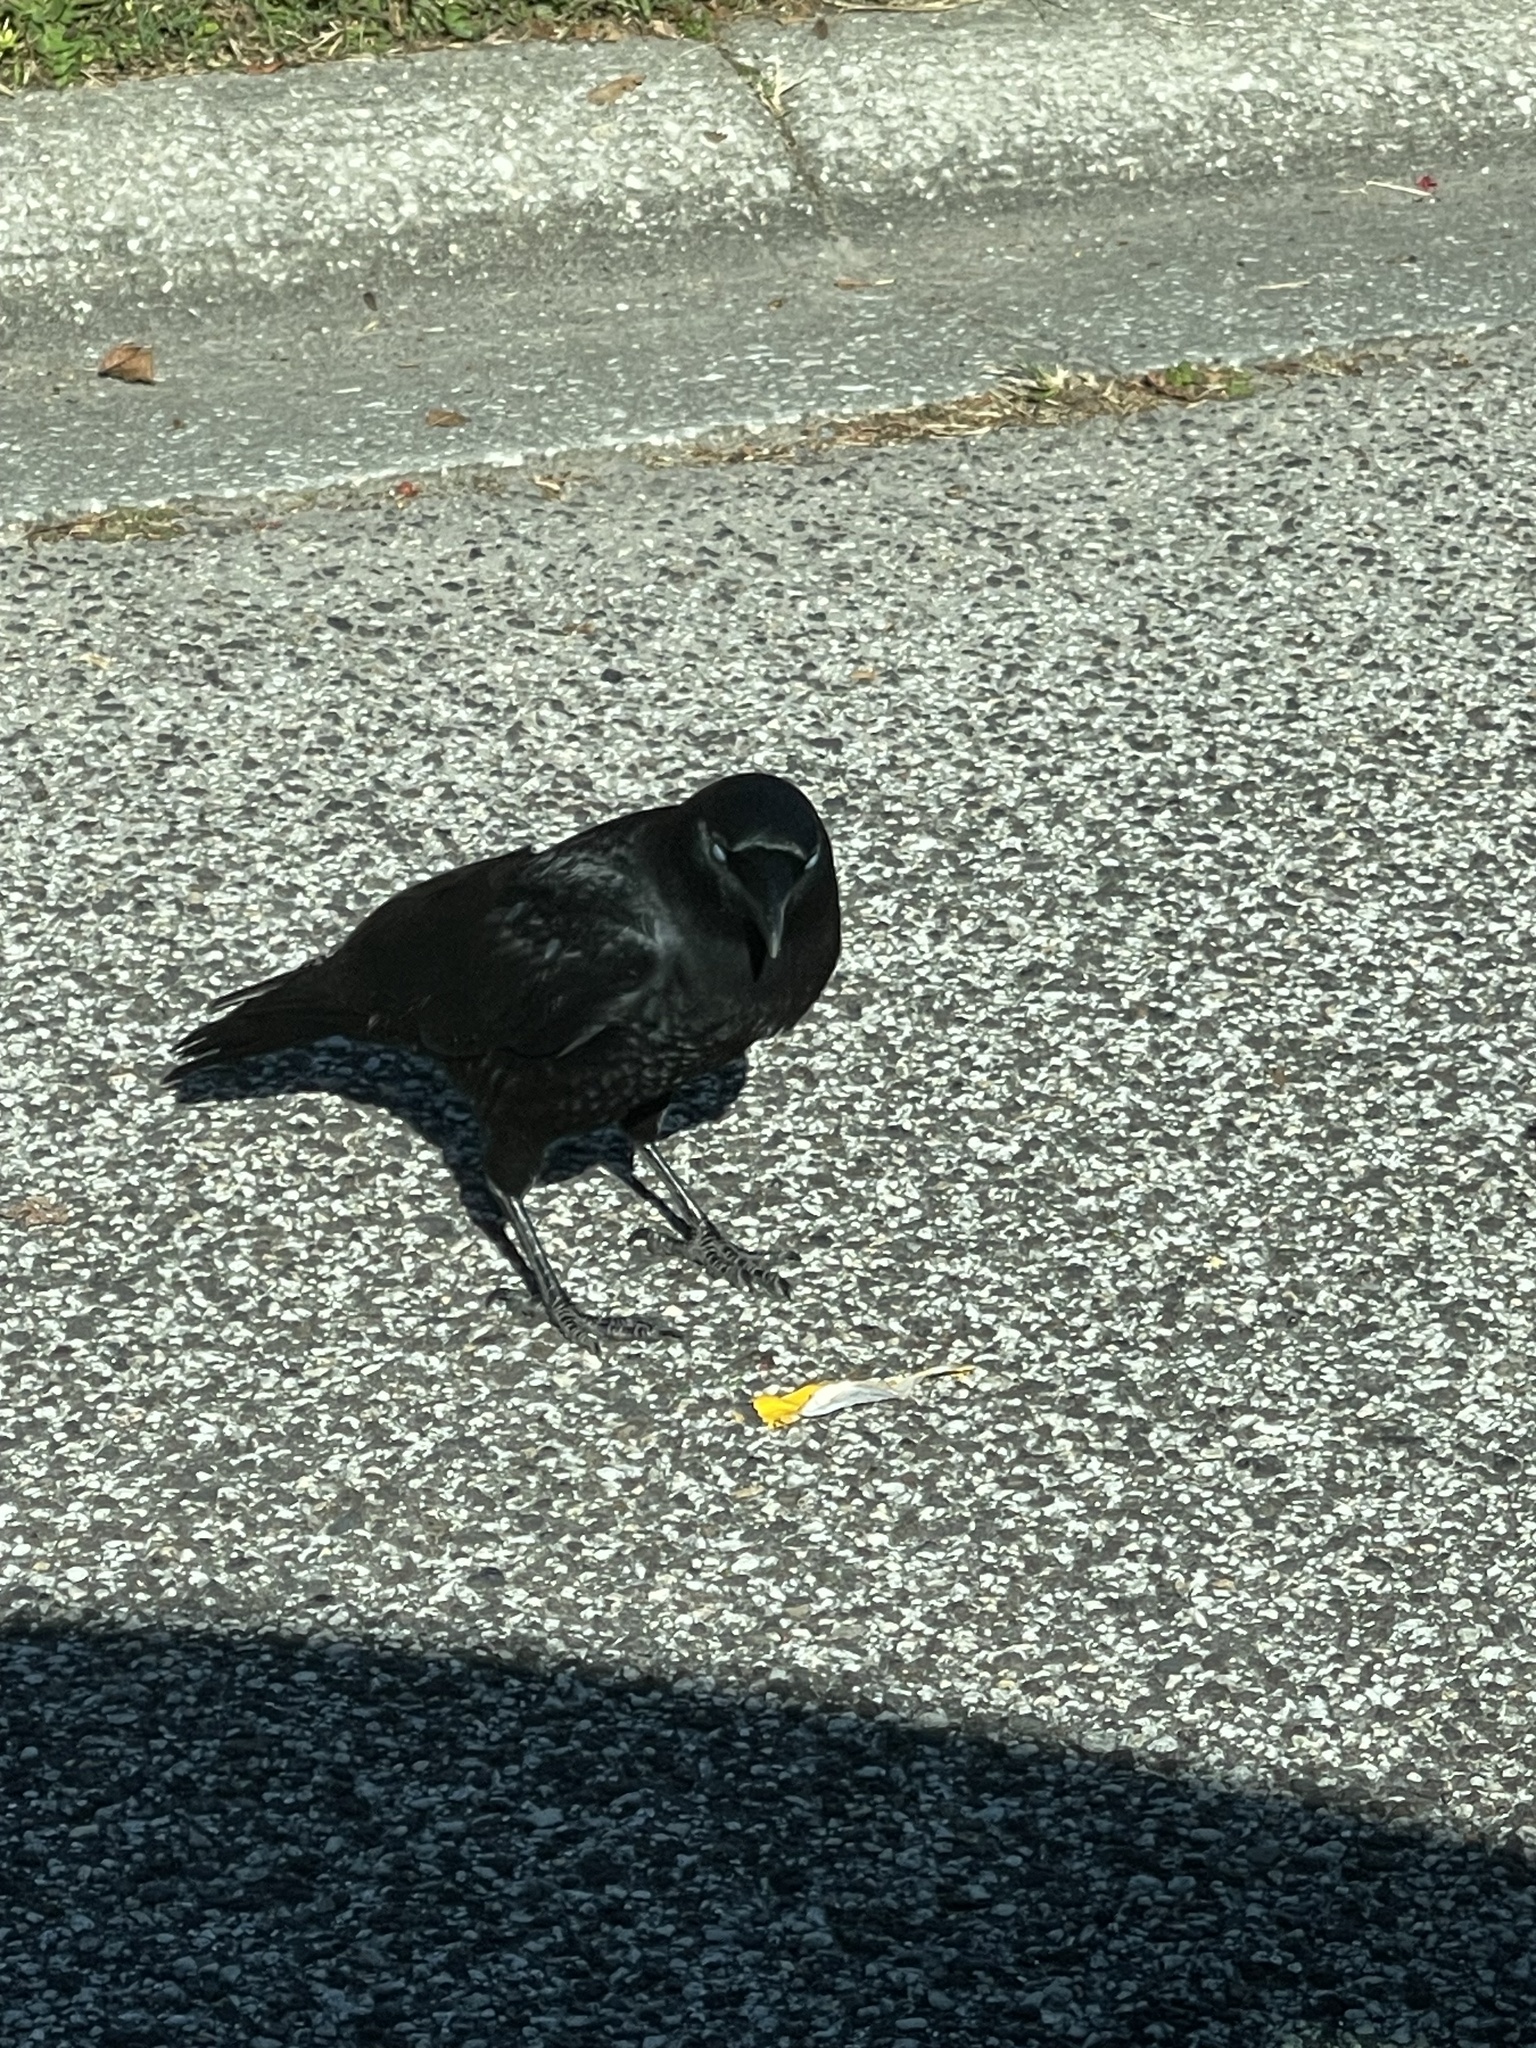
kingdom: Animalia
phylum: Chordata
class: Aves
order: Passeriformes
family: Corvidae
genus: Corvus
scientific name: Corvus
